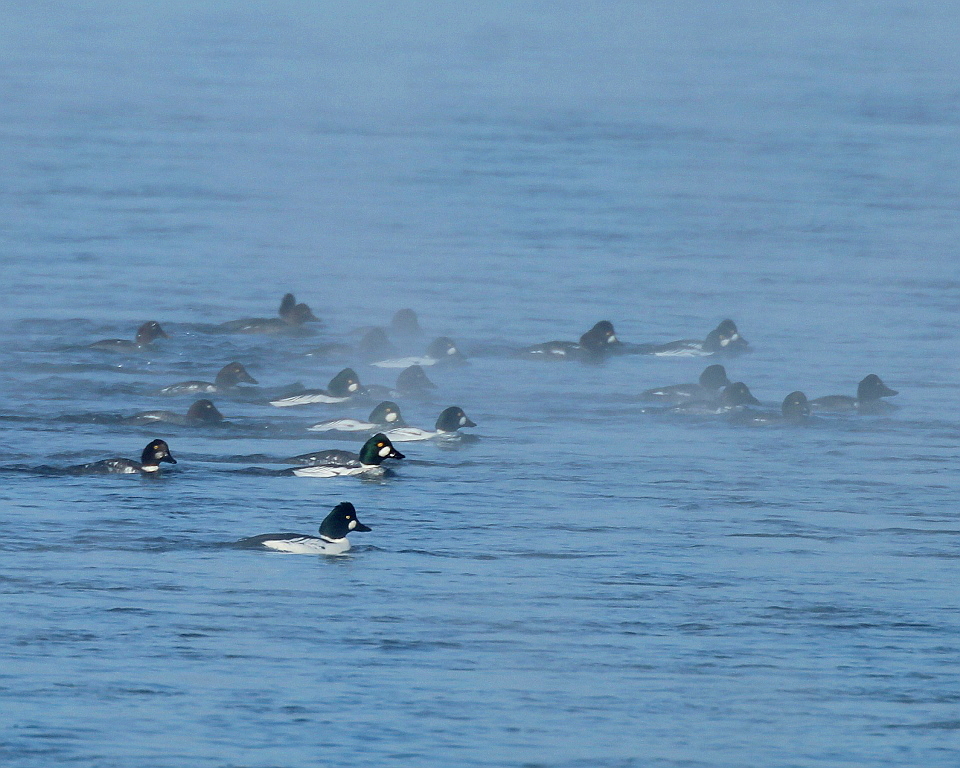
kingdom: Animalia
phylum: Chordata
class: Aves
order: Anseriformes
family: Anatidae
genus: Bucephala
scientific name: Bucephala clangula
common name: Common goldeneye
